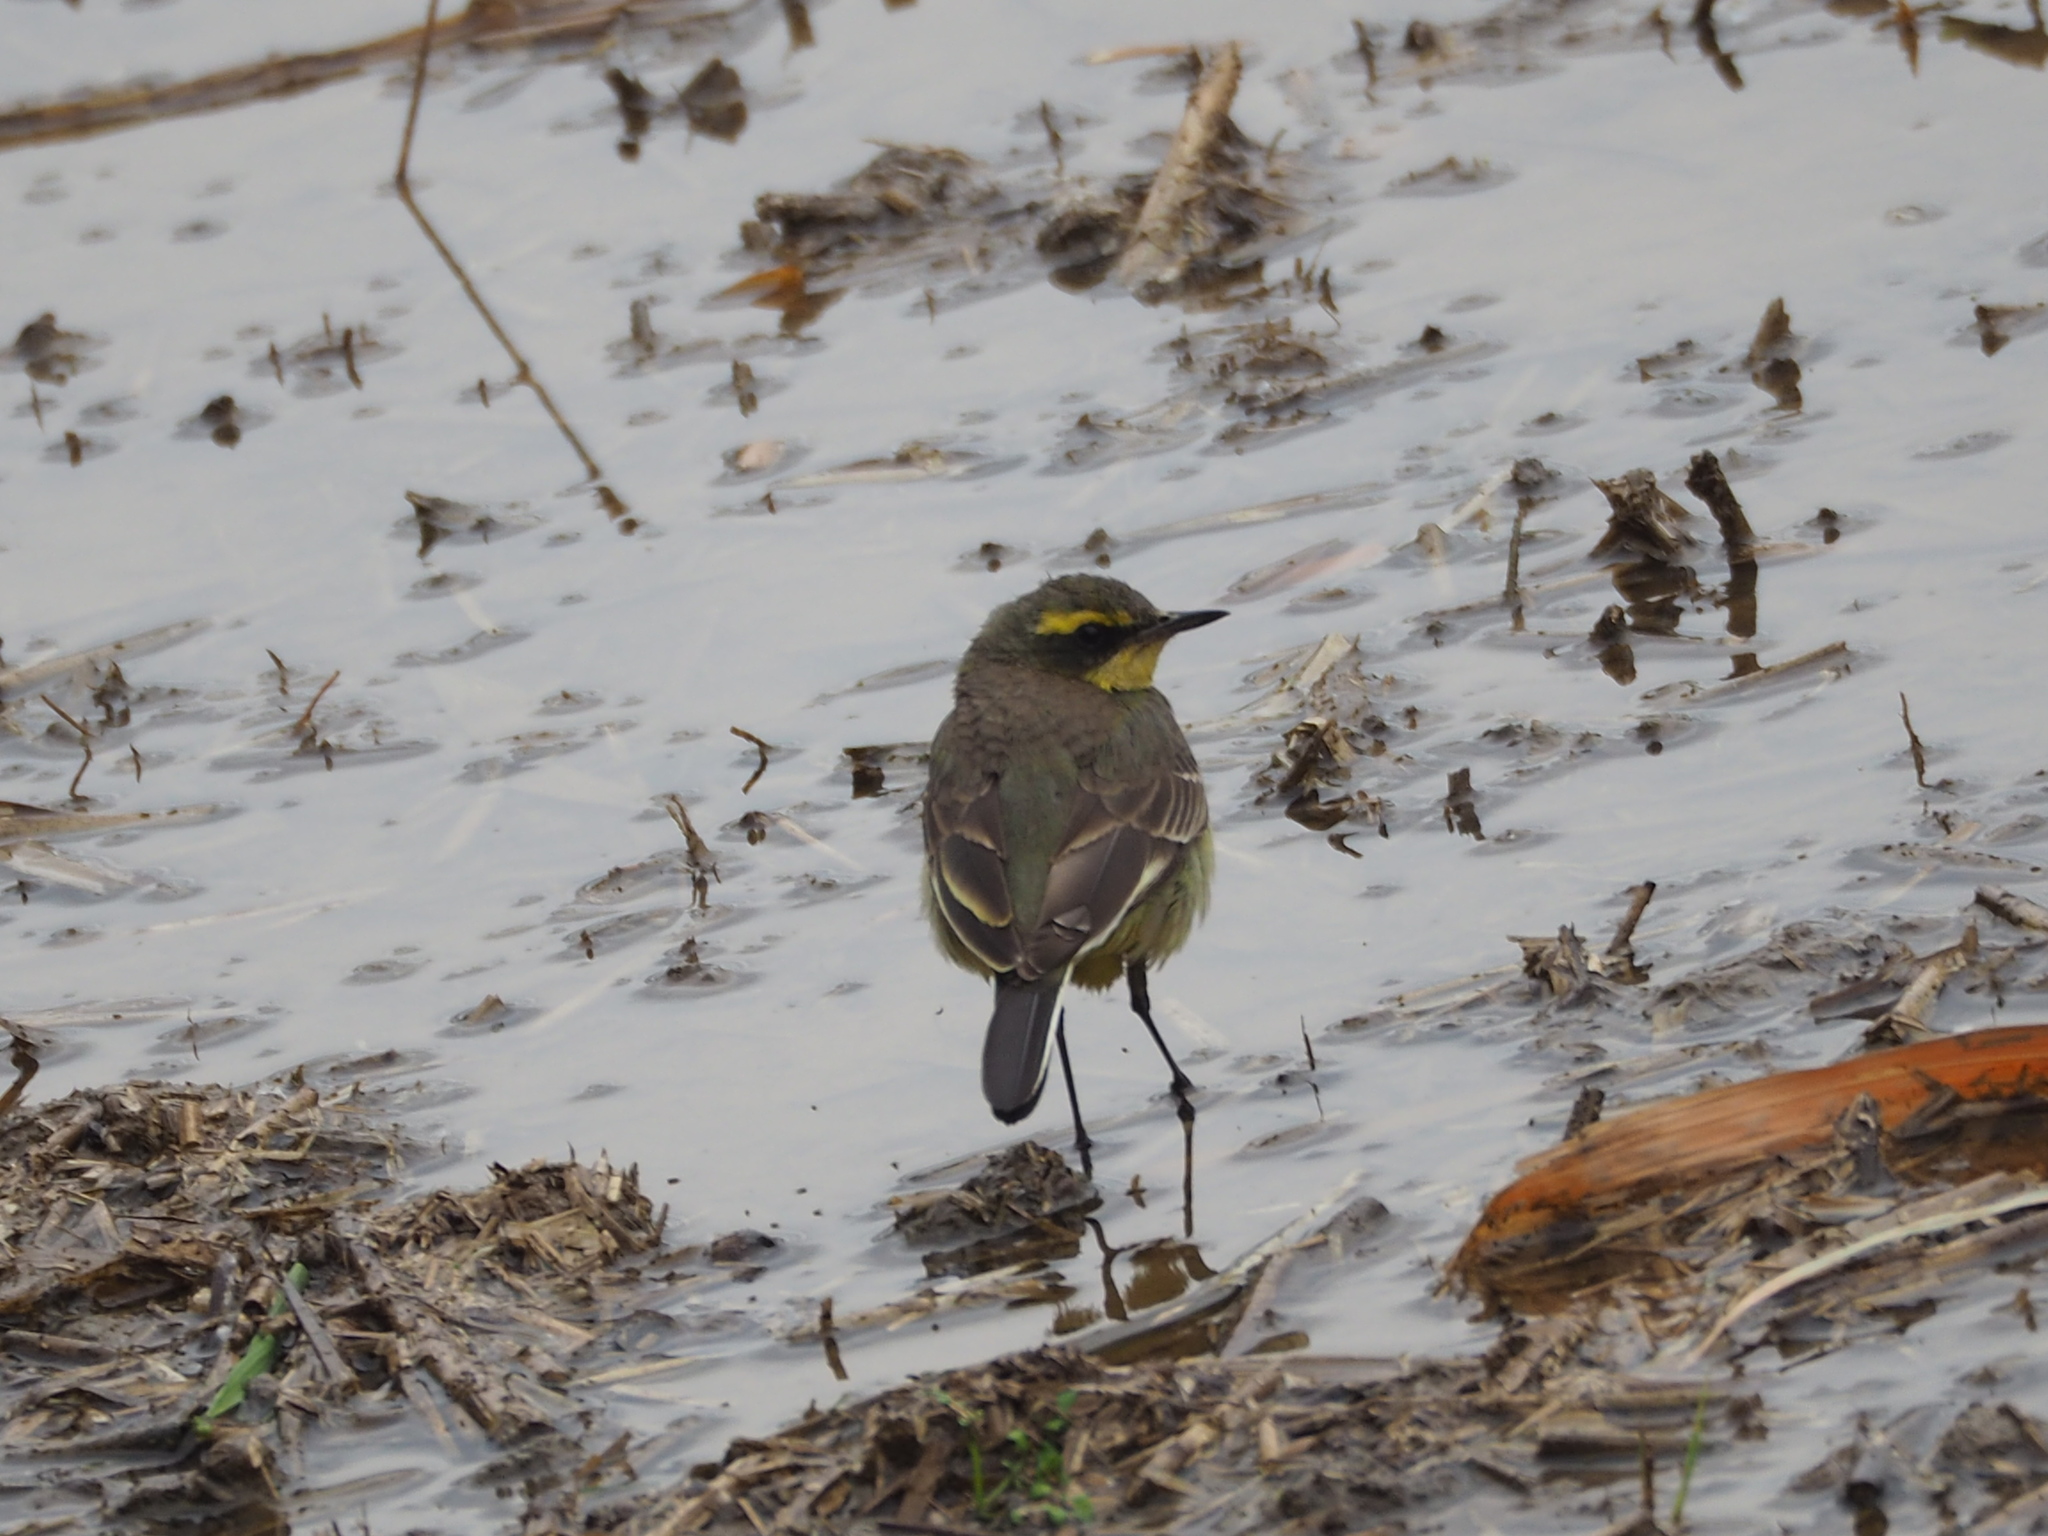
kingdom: Animalia
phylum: Chordata
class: Aves
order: Passeriformes
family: Motacillidae
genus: Motacilla
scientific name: Motacilla tschutschensis
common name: Eastern yellow wagtail
